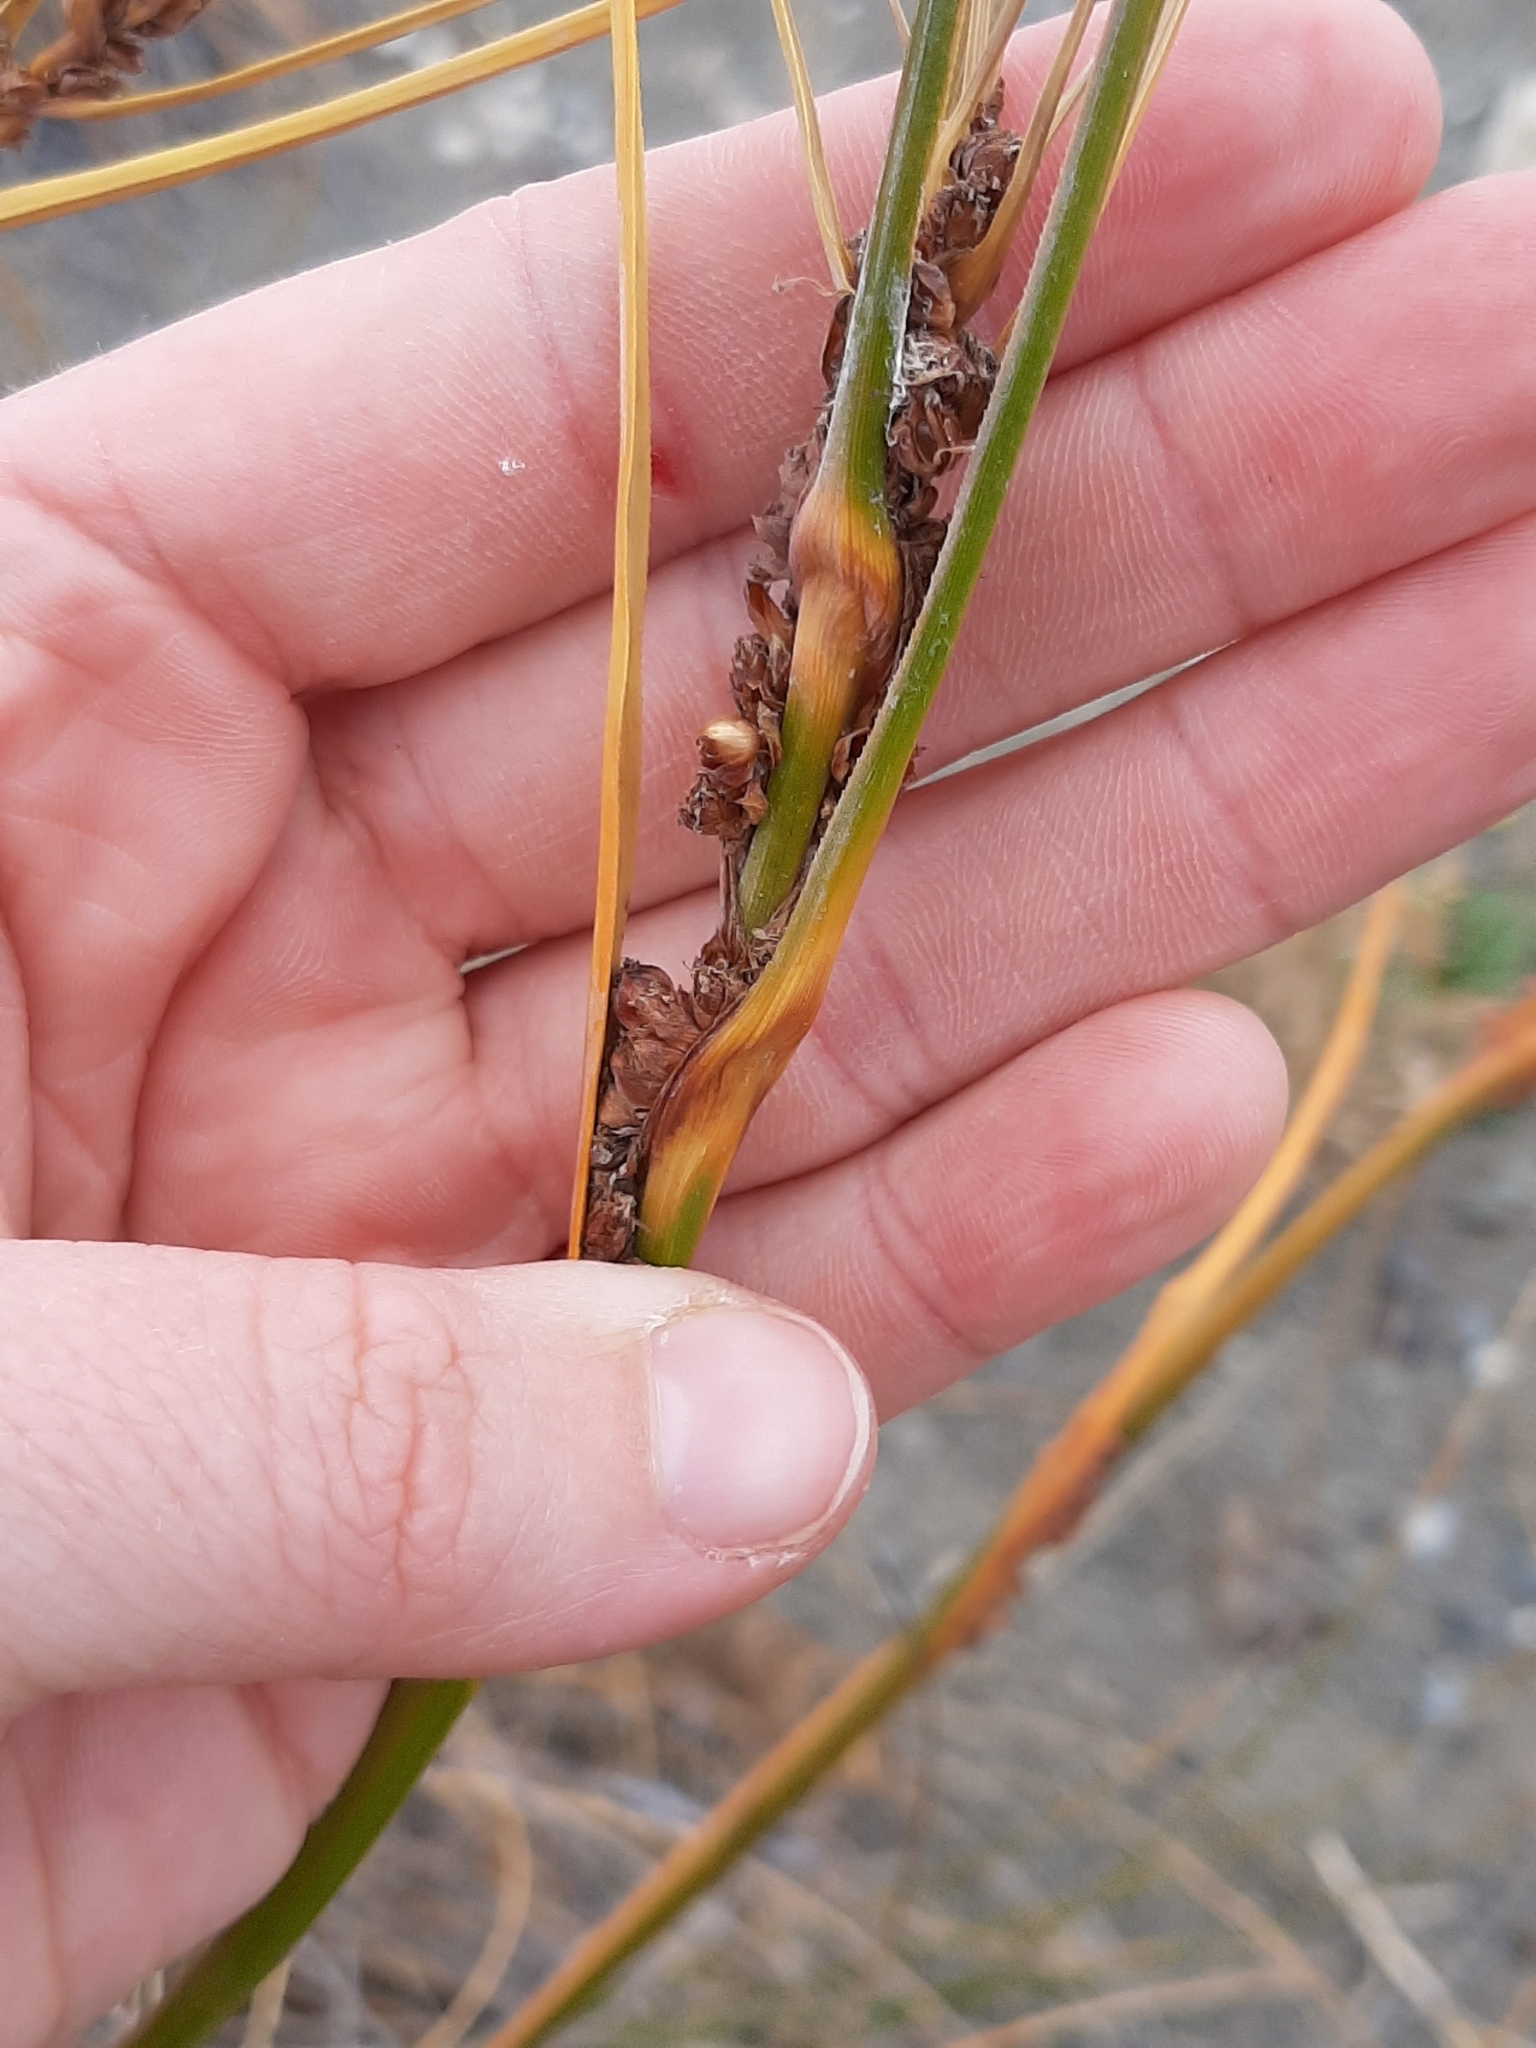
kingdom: Plantae
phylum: Tracheophyta
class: Liliopsida
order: Poales
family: Cyperaceae
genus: Ficinia
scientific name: Ficinia spiralis
